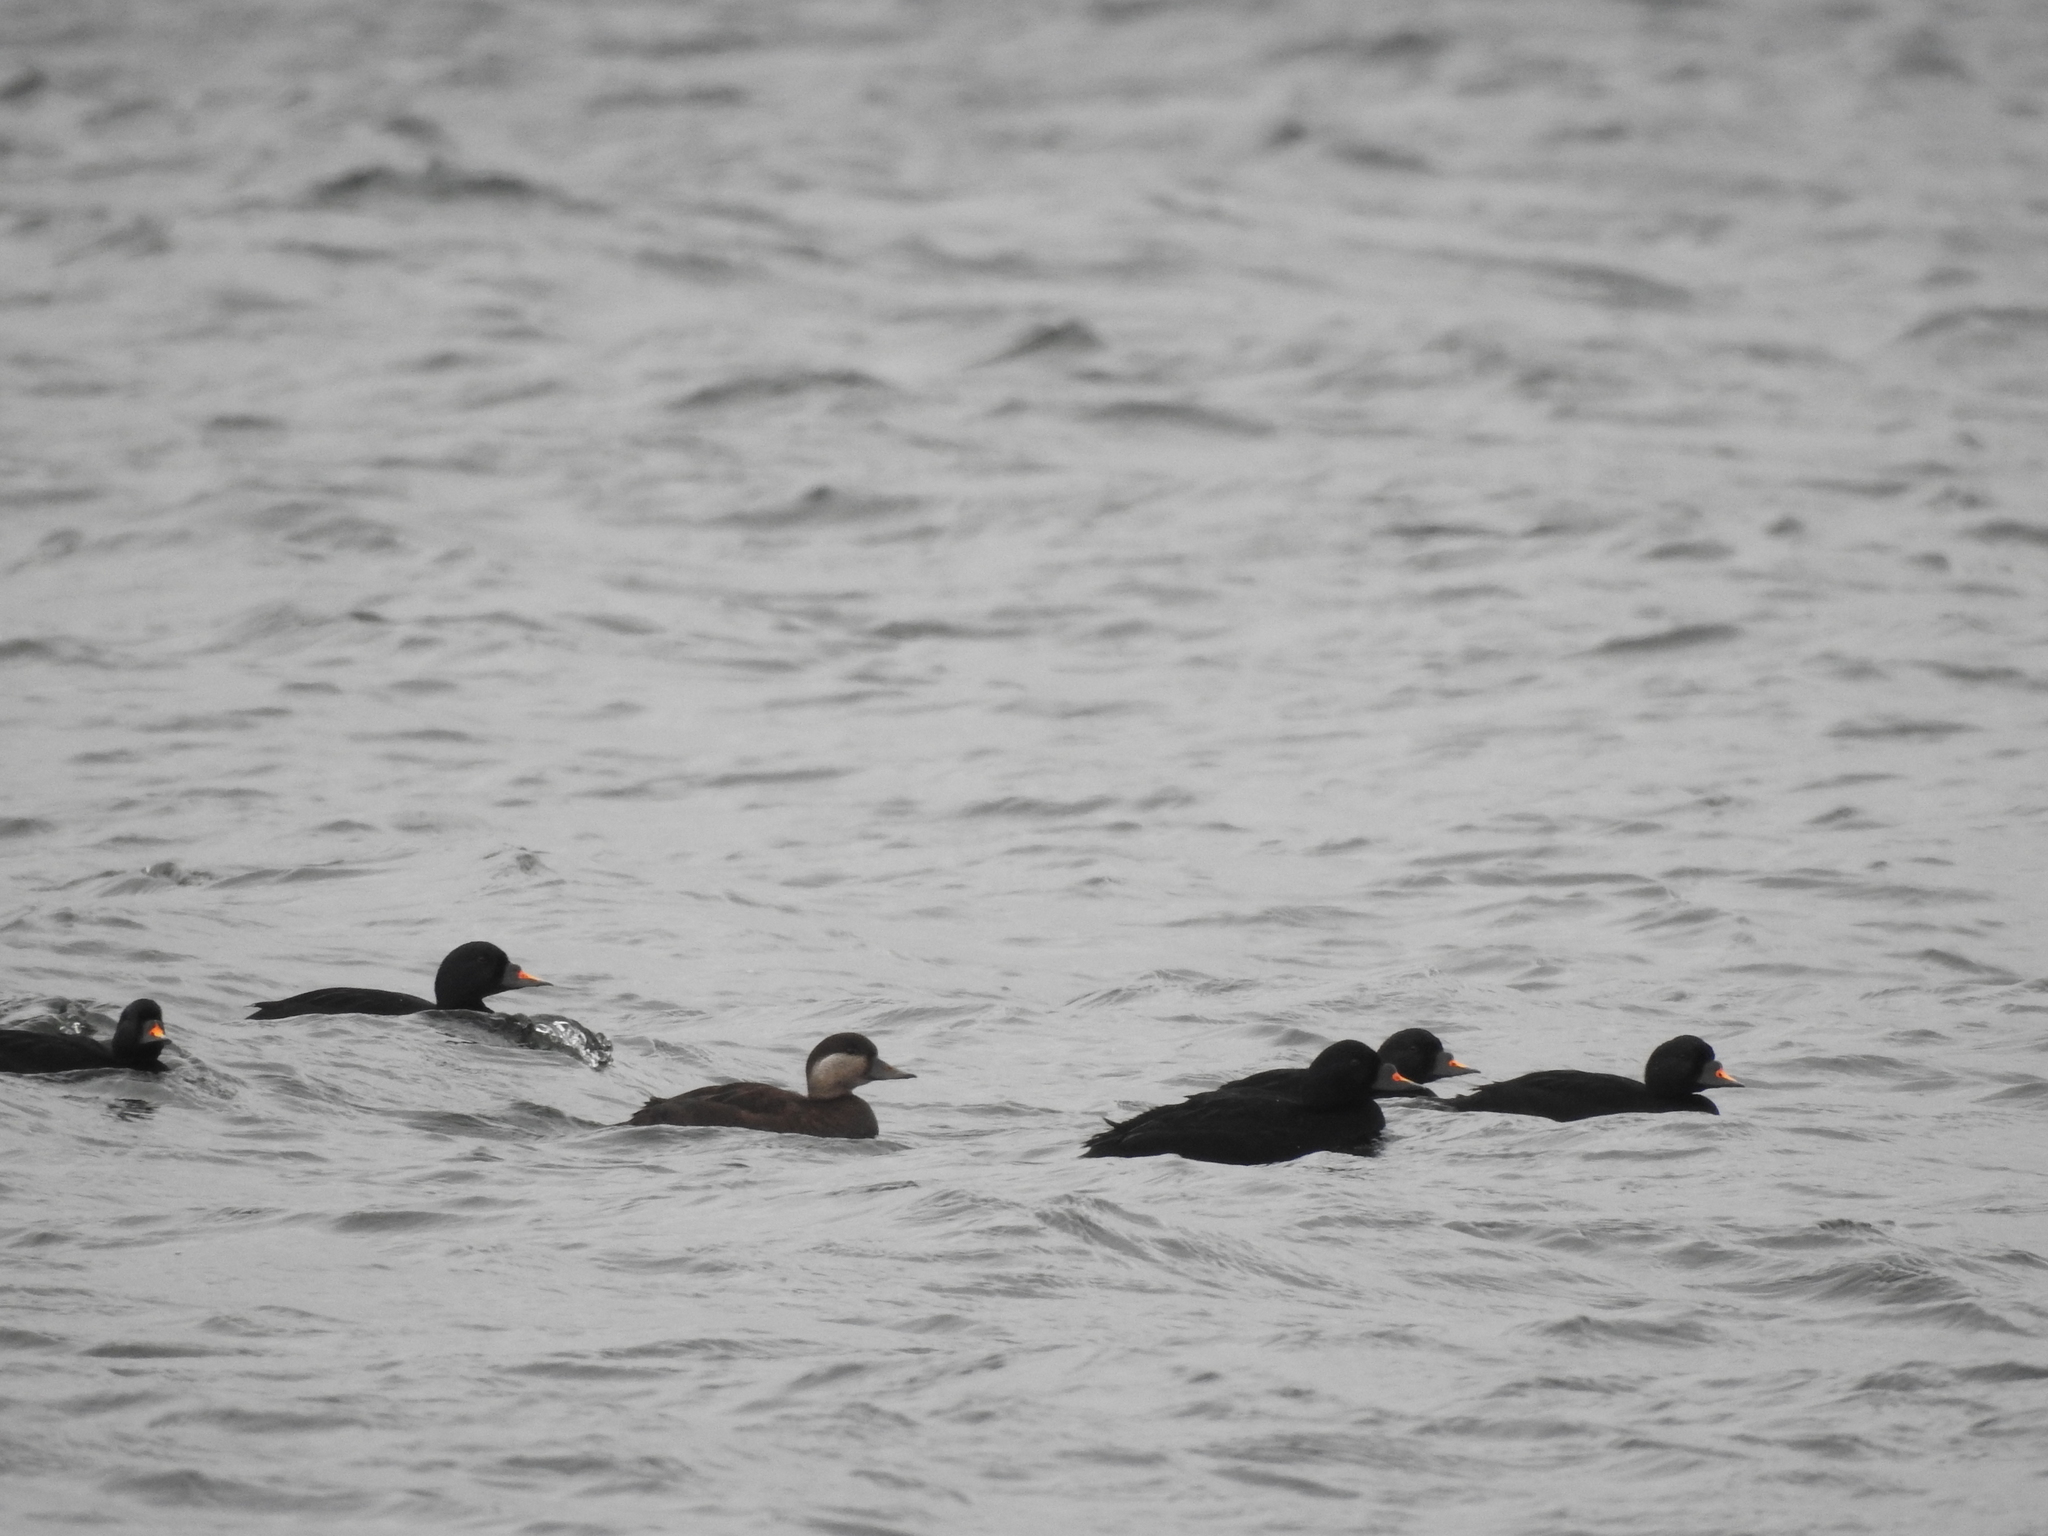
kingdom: Animalia
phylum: Chordata
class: Aves
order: Anseriformes
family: Anatidae
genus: Melanitta
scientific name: Melanitta nigra
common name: Common scoter
